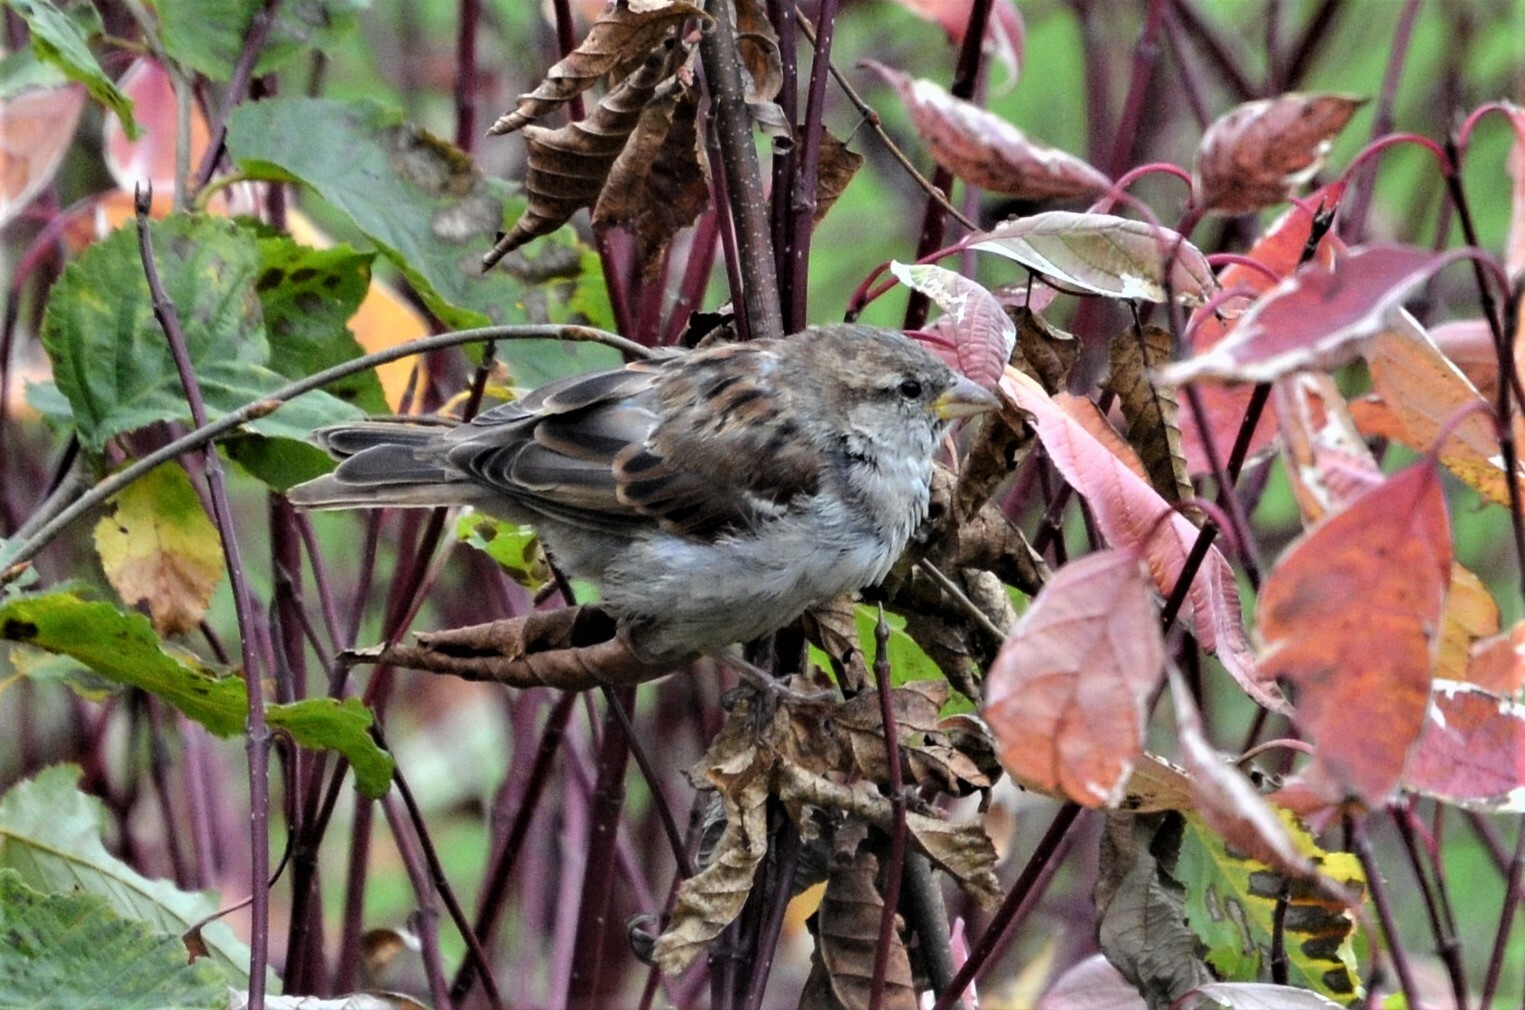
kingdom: Animalia
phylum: Chordata
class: Aves
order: Passeriformes
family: Passeridae
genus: Passer
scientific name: Passer domesticus
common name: House sparrow
